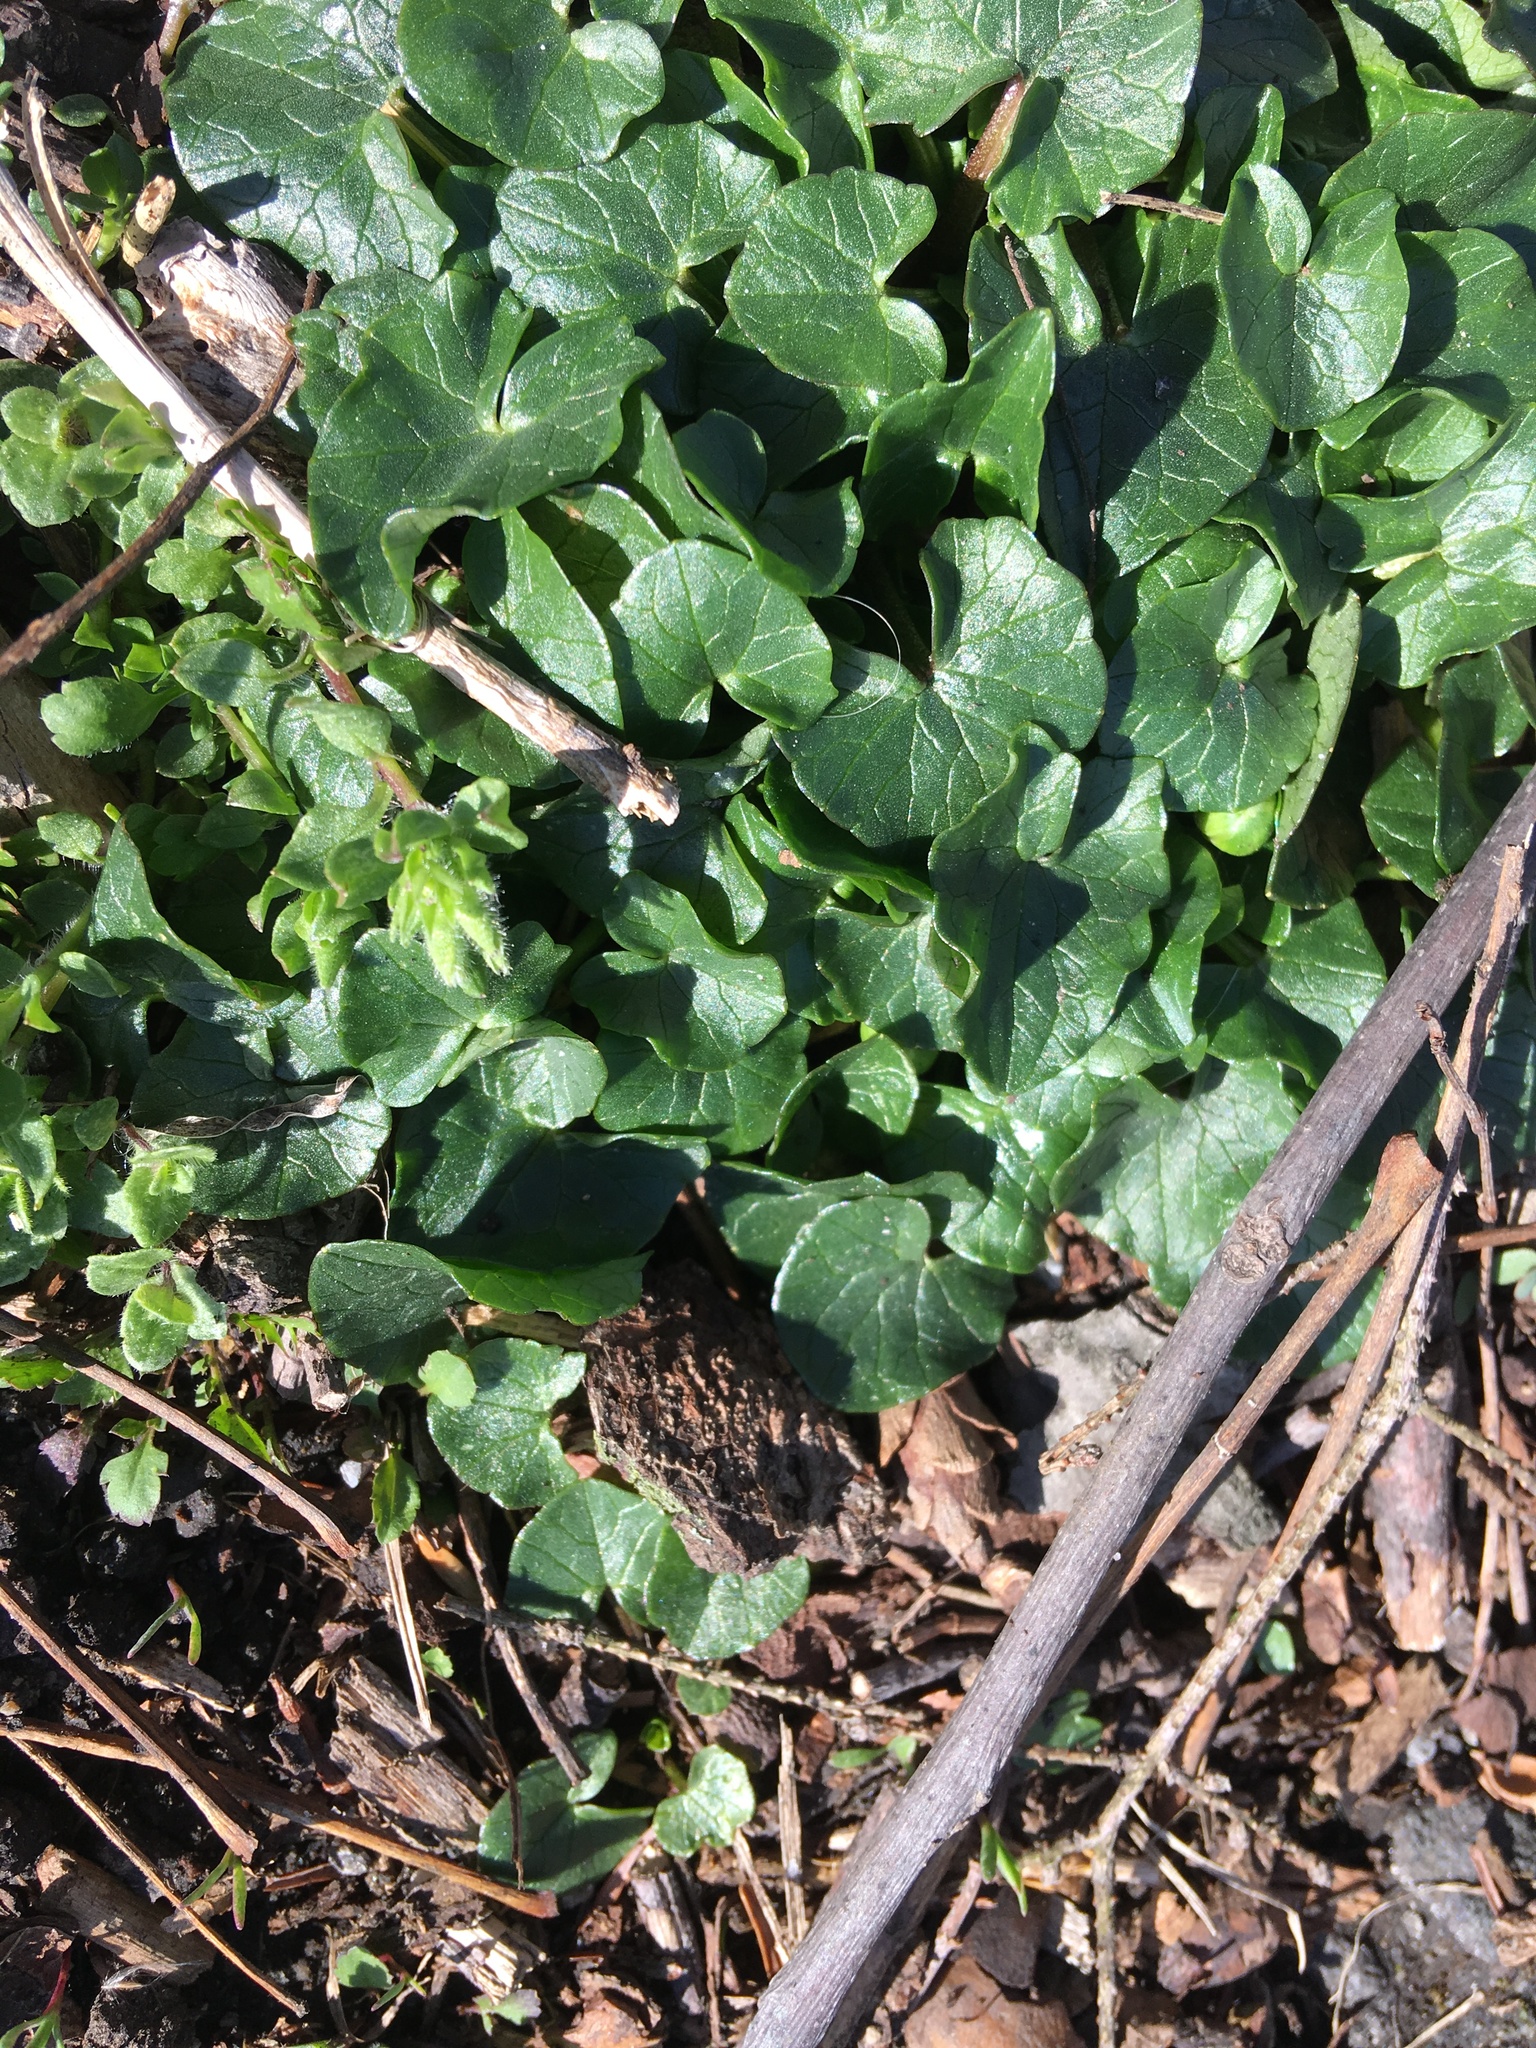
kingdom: Plantae
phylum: Tracheophyta
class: Magnoliopsida
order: Ranunculales
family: Ranunculaceae
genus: Ficaria
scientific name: Ficaria verna
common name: Lesser celandine
